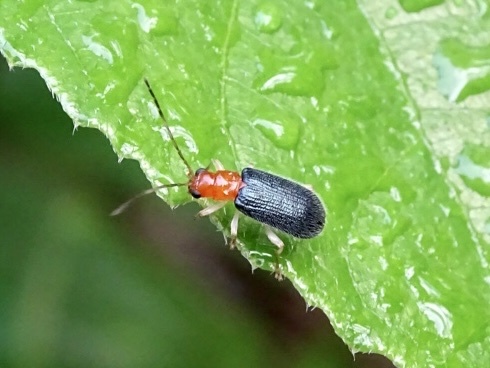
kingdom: Animalia
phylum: Arthropoda
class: Insecta
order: Coleoptera
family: Chrysomelidae
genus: Trichobalya
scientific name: Trichobalya
